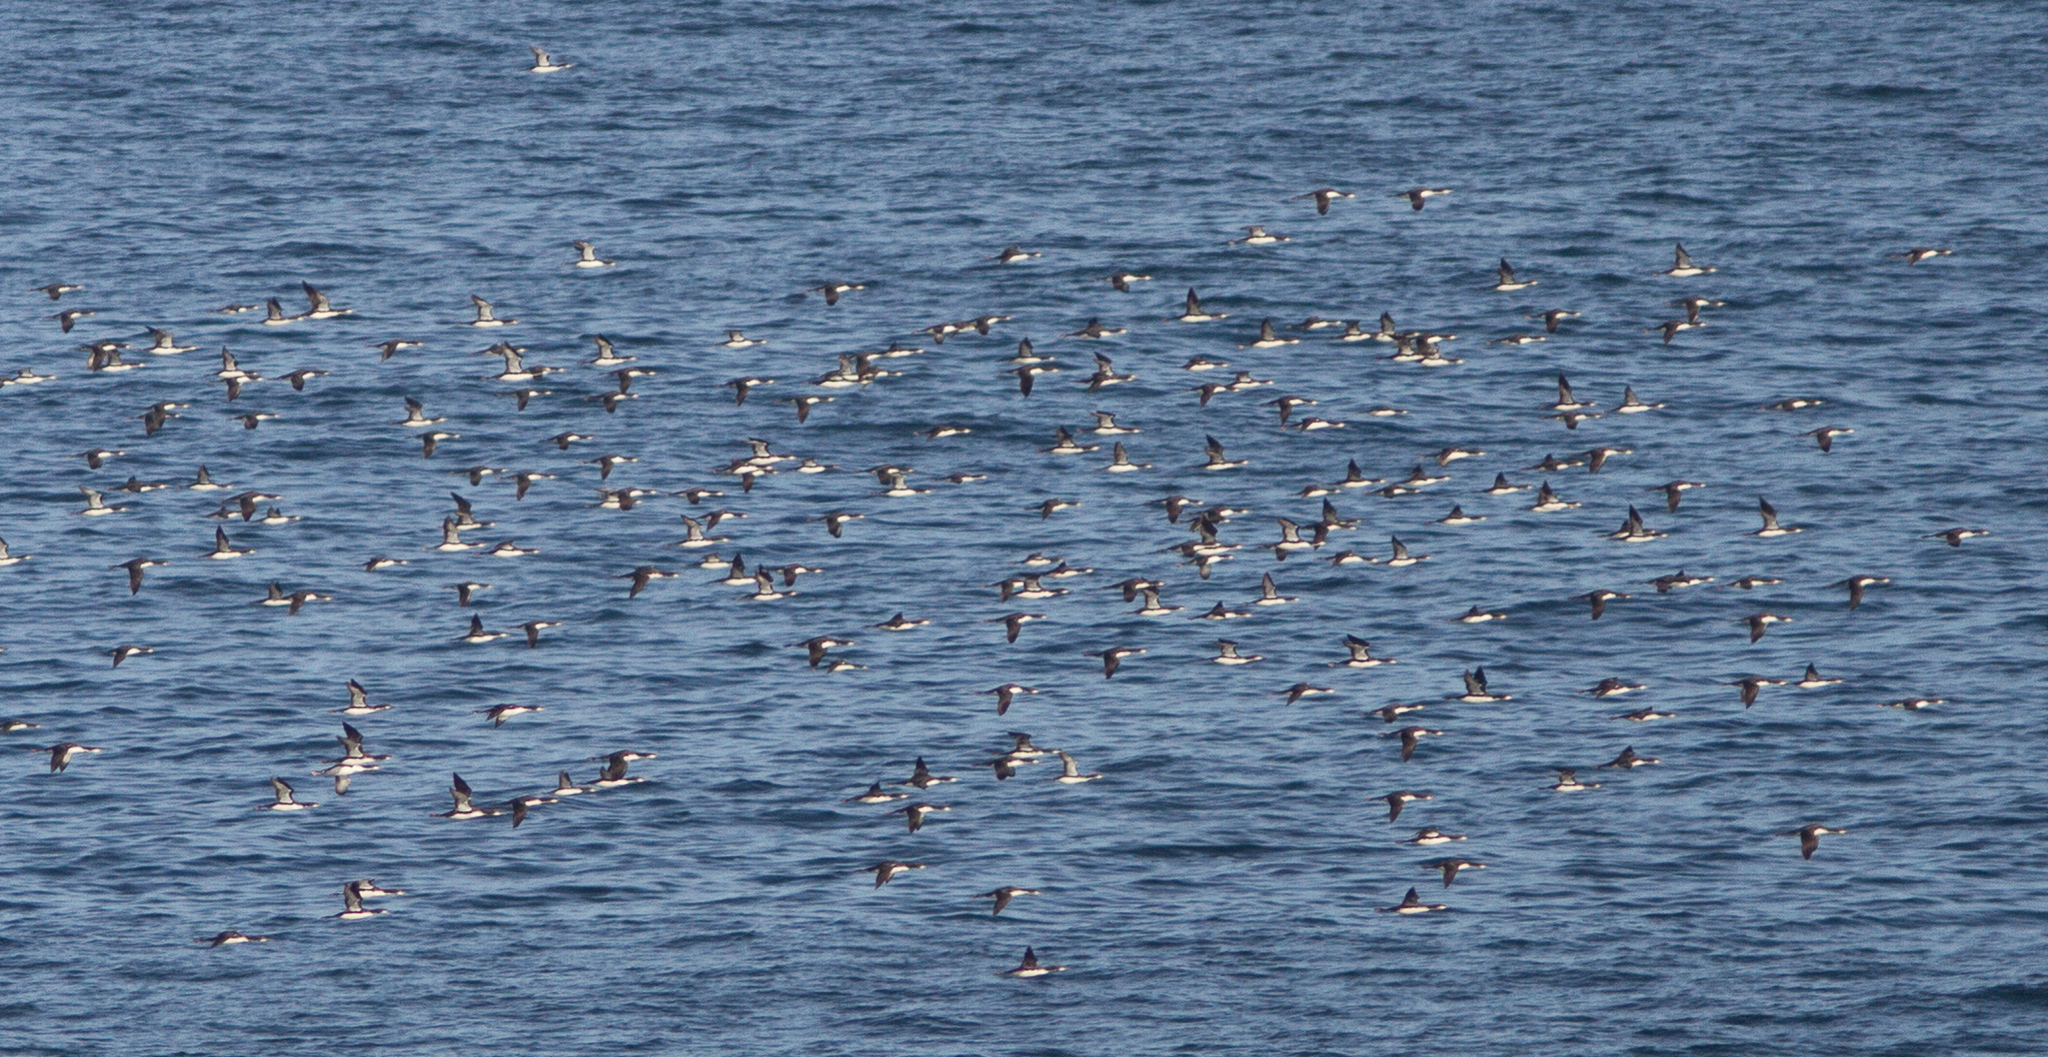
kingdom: Animalia
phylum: Chordata
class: Aves
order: Gaviiformes
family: Gaviidae
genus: Gavia
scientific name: Gavia pacifica
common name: Pacific loon
